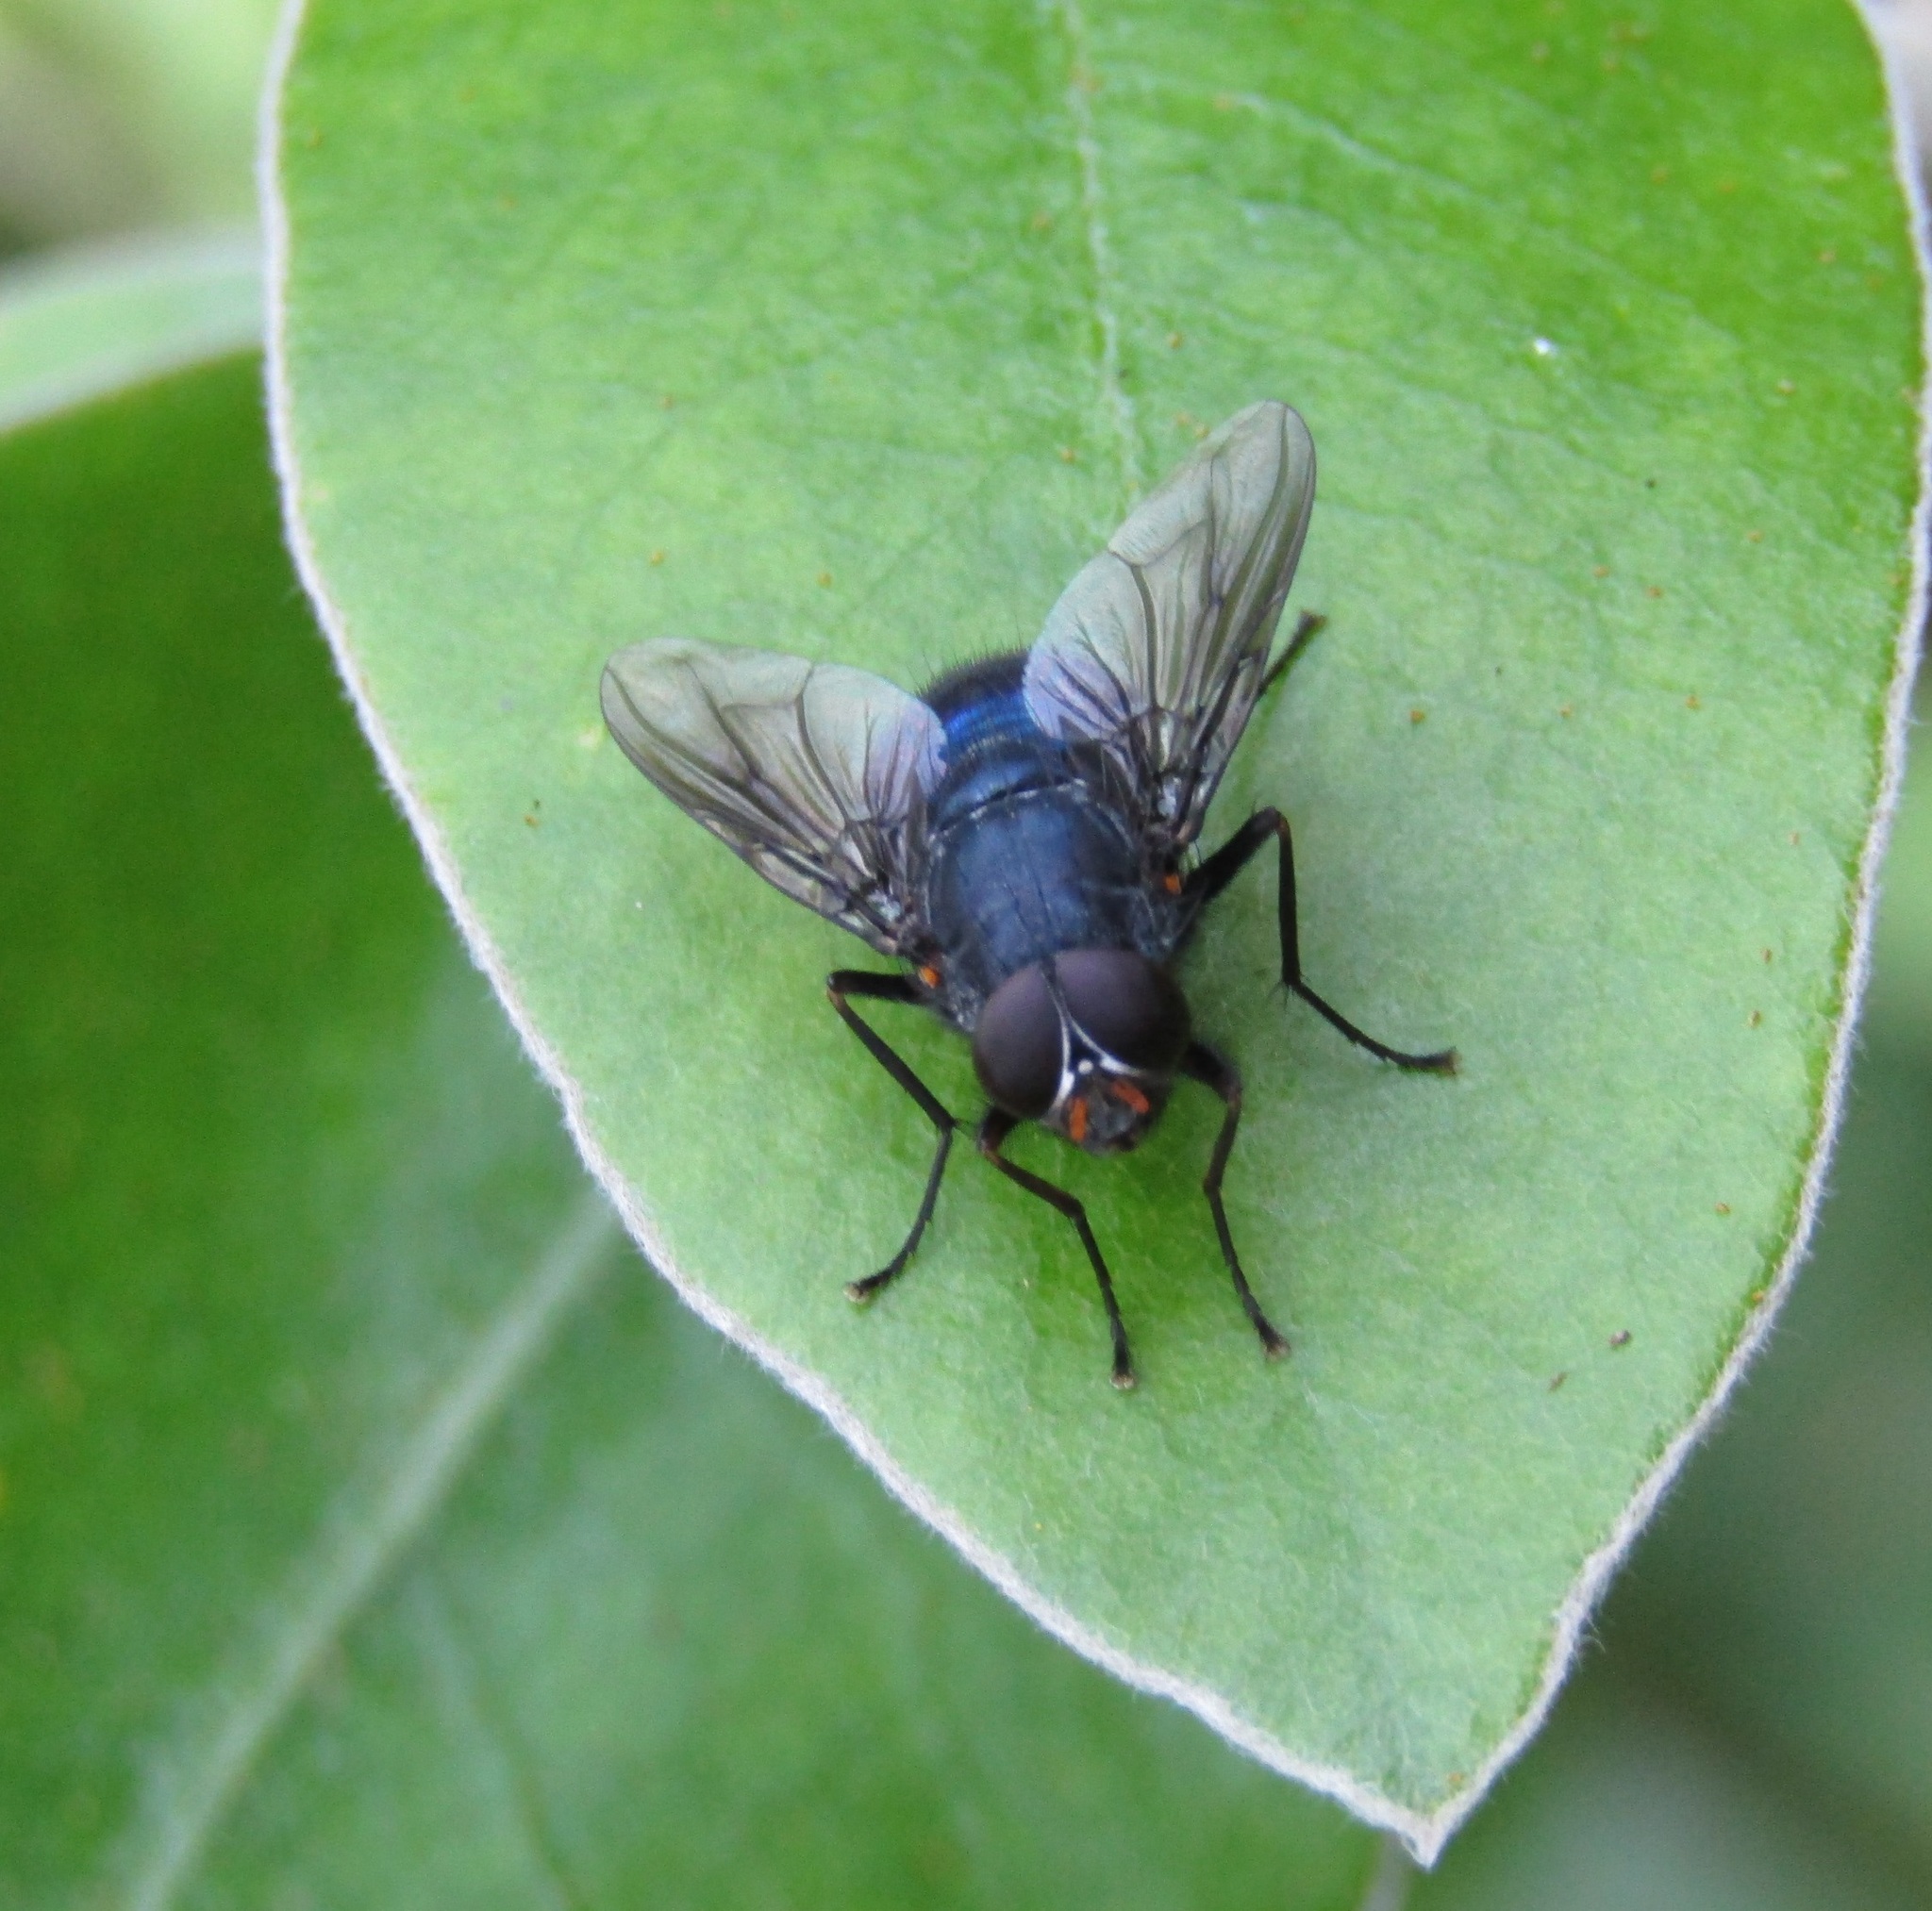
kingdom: Animalia
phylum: Arthropoda
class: Insecta
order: Diptera
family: Muscidae
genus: Calliphoroides
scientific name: Calliphoroides antennatis
